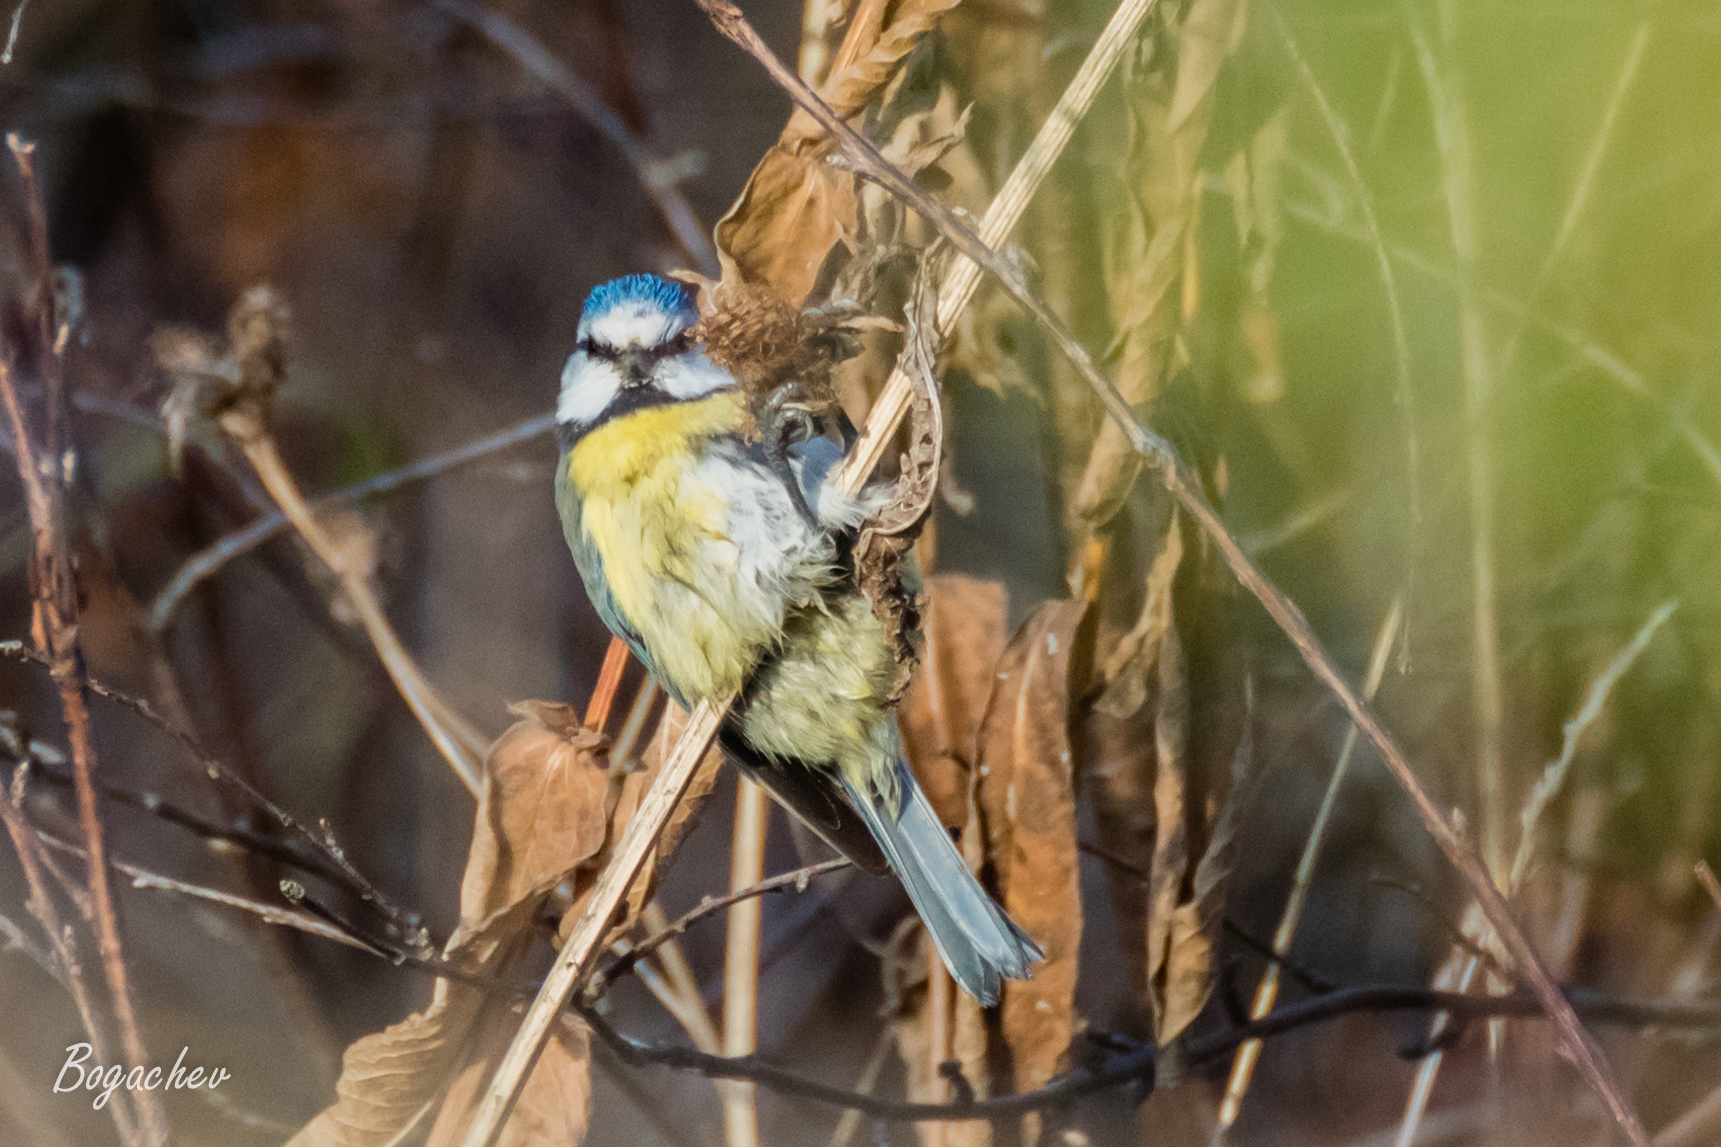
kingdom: Animalia
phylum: Chordata
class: Aves
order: Passeriformes
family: Paridae
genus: Cyanistes
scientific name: Cyanistes caeruleus
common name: Eurasian blue tit
